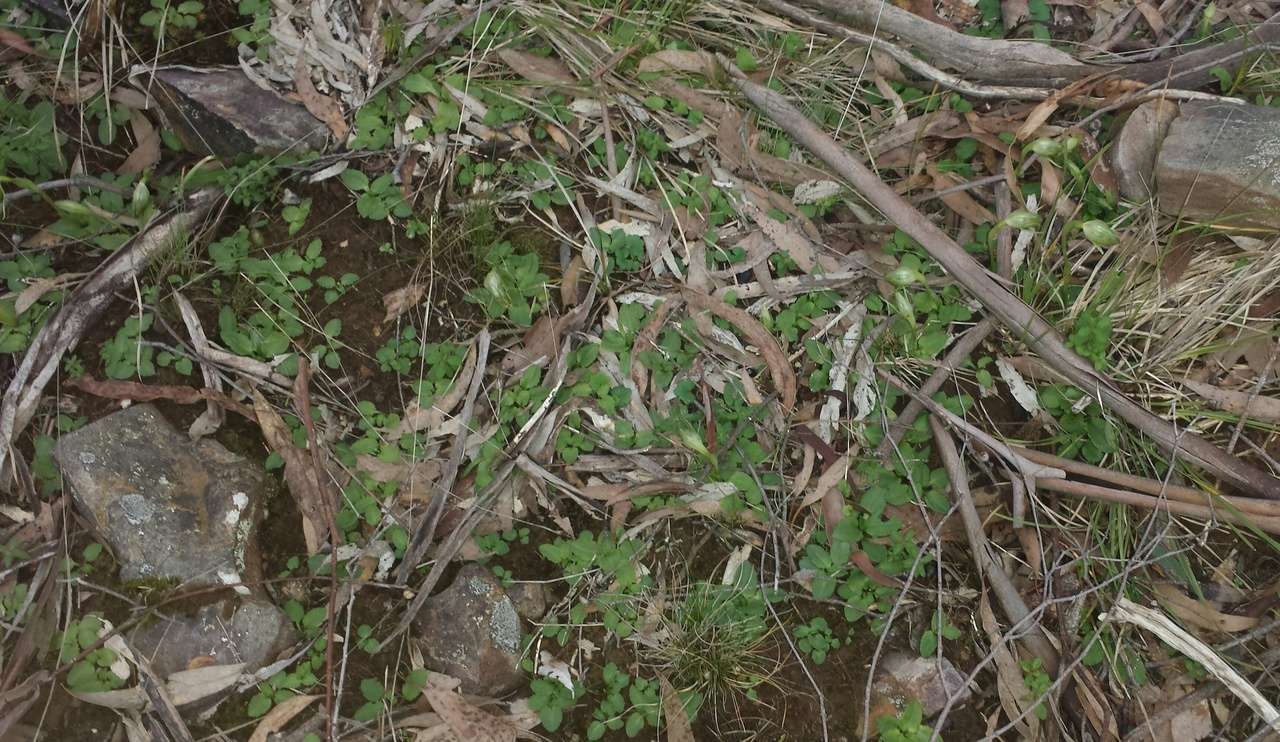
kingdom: Plantae
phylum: Tracheophyta
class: Liliopsida
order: Asparagales
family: Orchidaceae
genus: Pterostylis
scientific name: Pterostylis nutans
